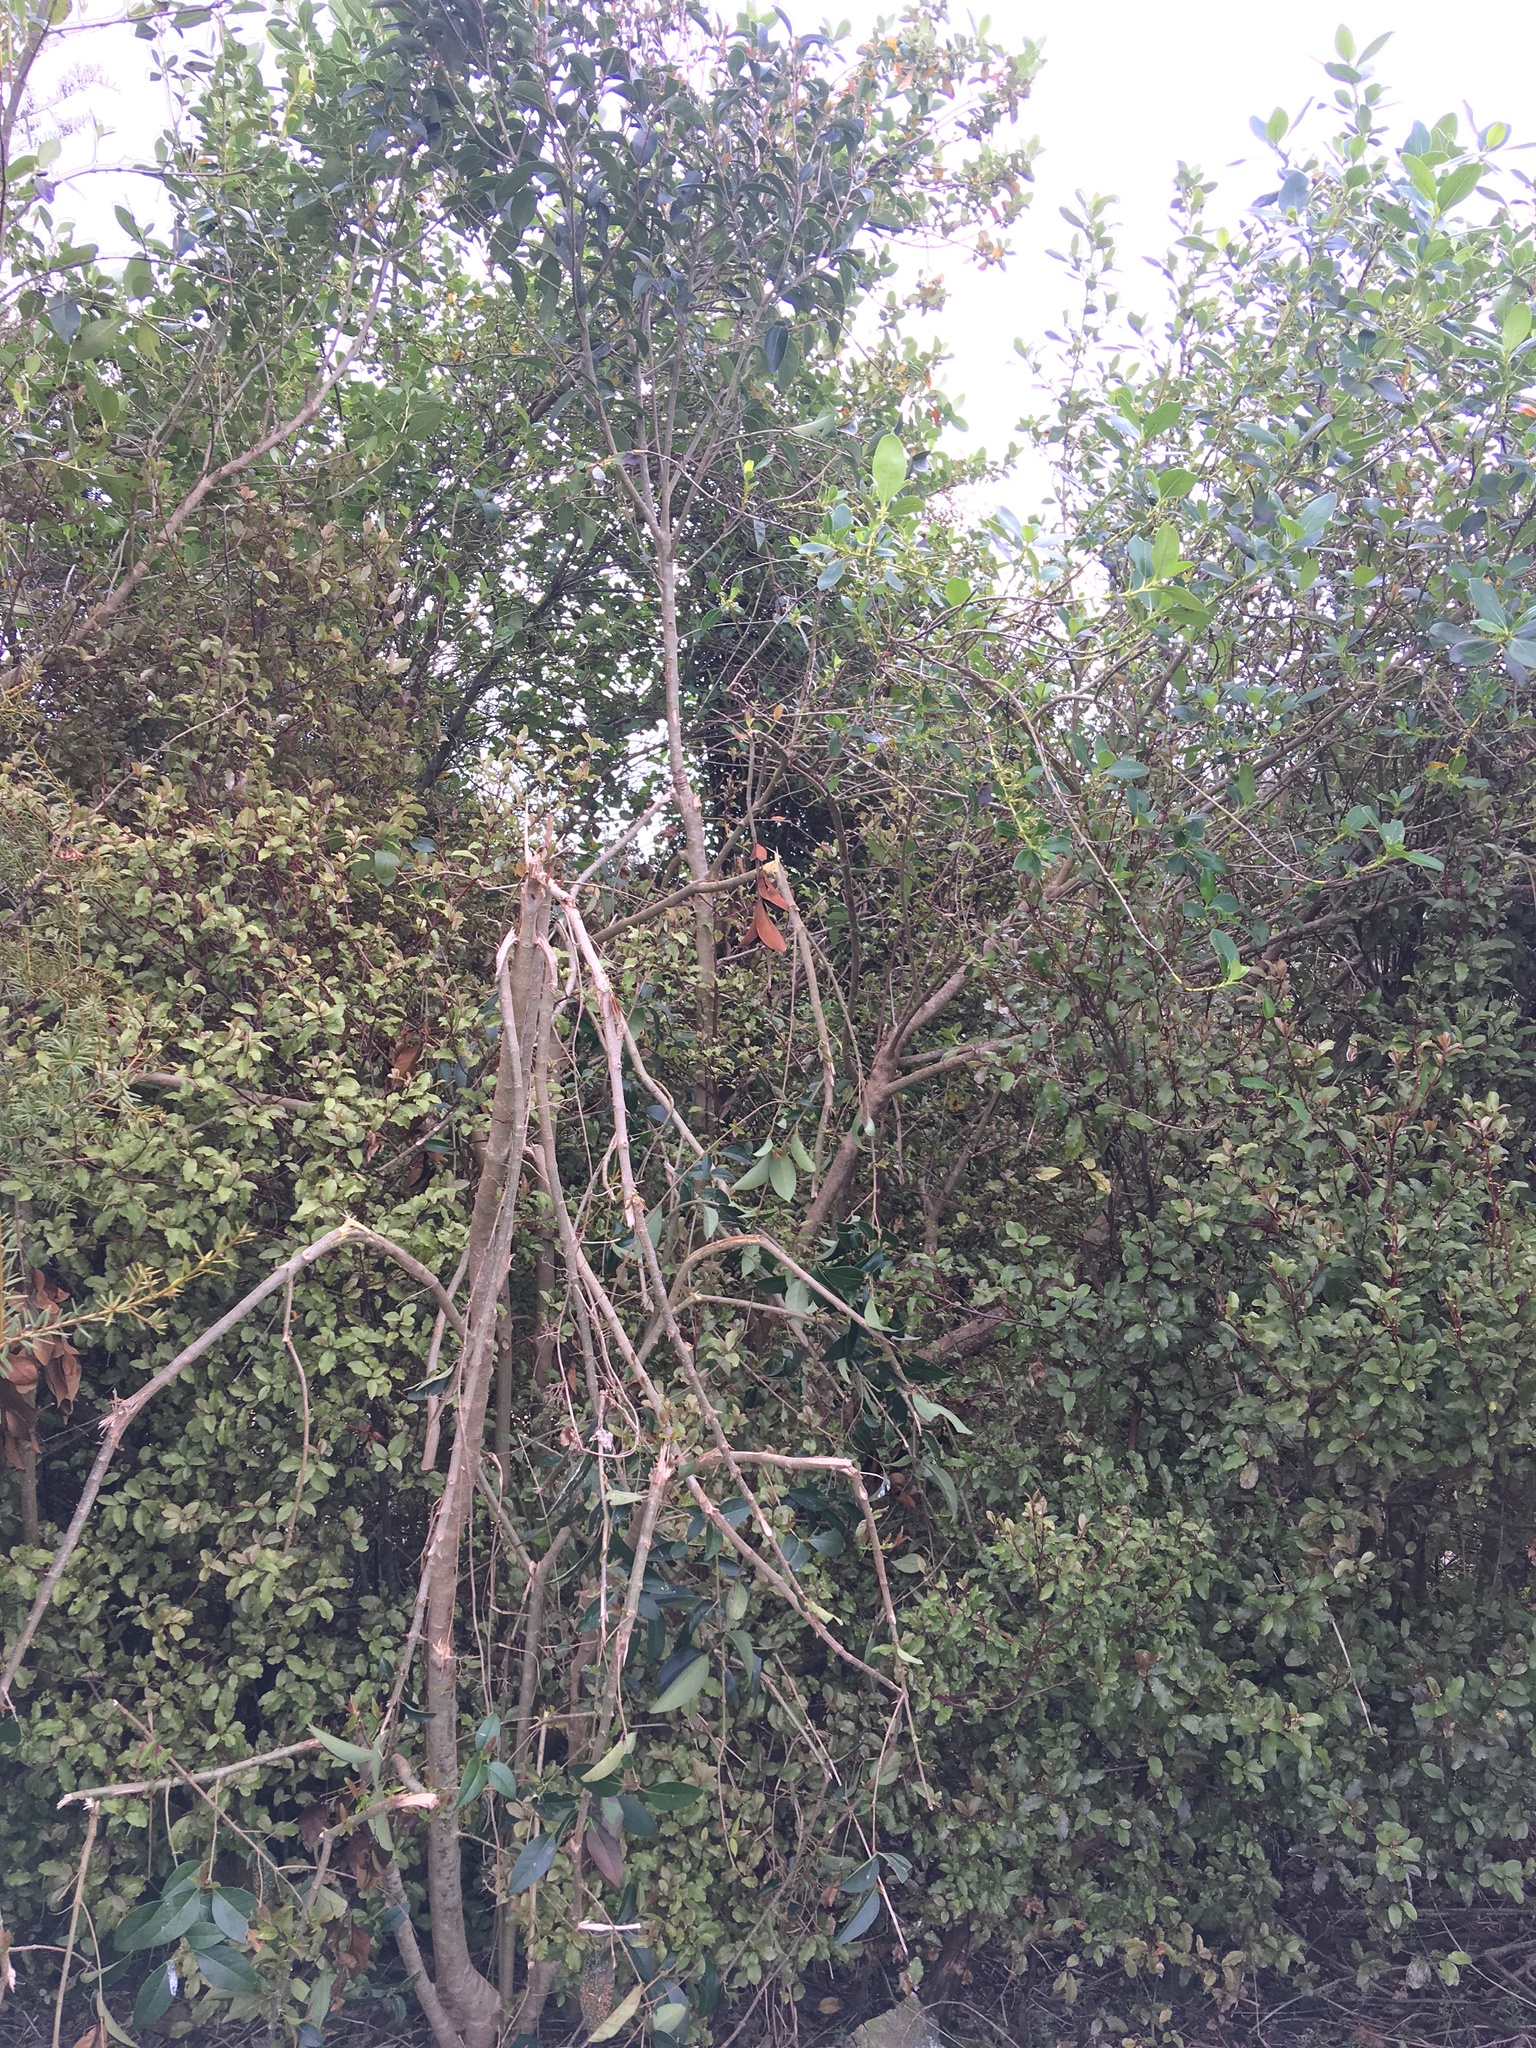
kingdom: Plantae
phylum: Tracheophyta
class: Magnoliopsida
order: Lamiales
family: Oleaceae
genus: Ligustrum
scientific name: Ligustrum lucidum
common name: Glossy privet
